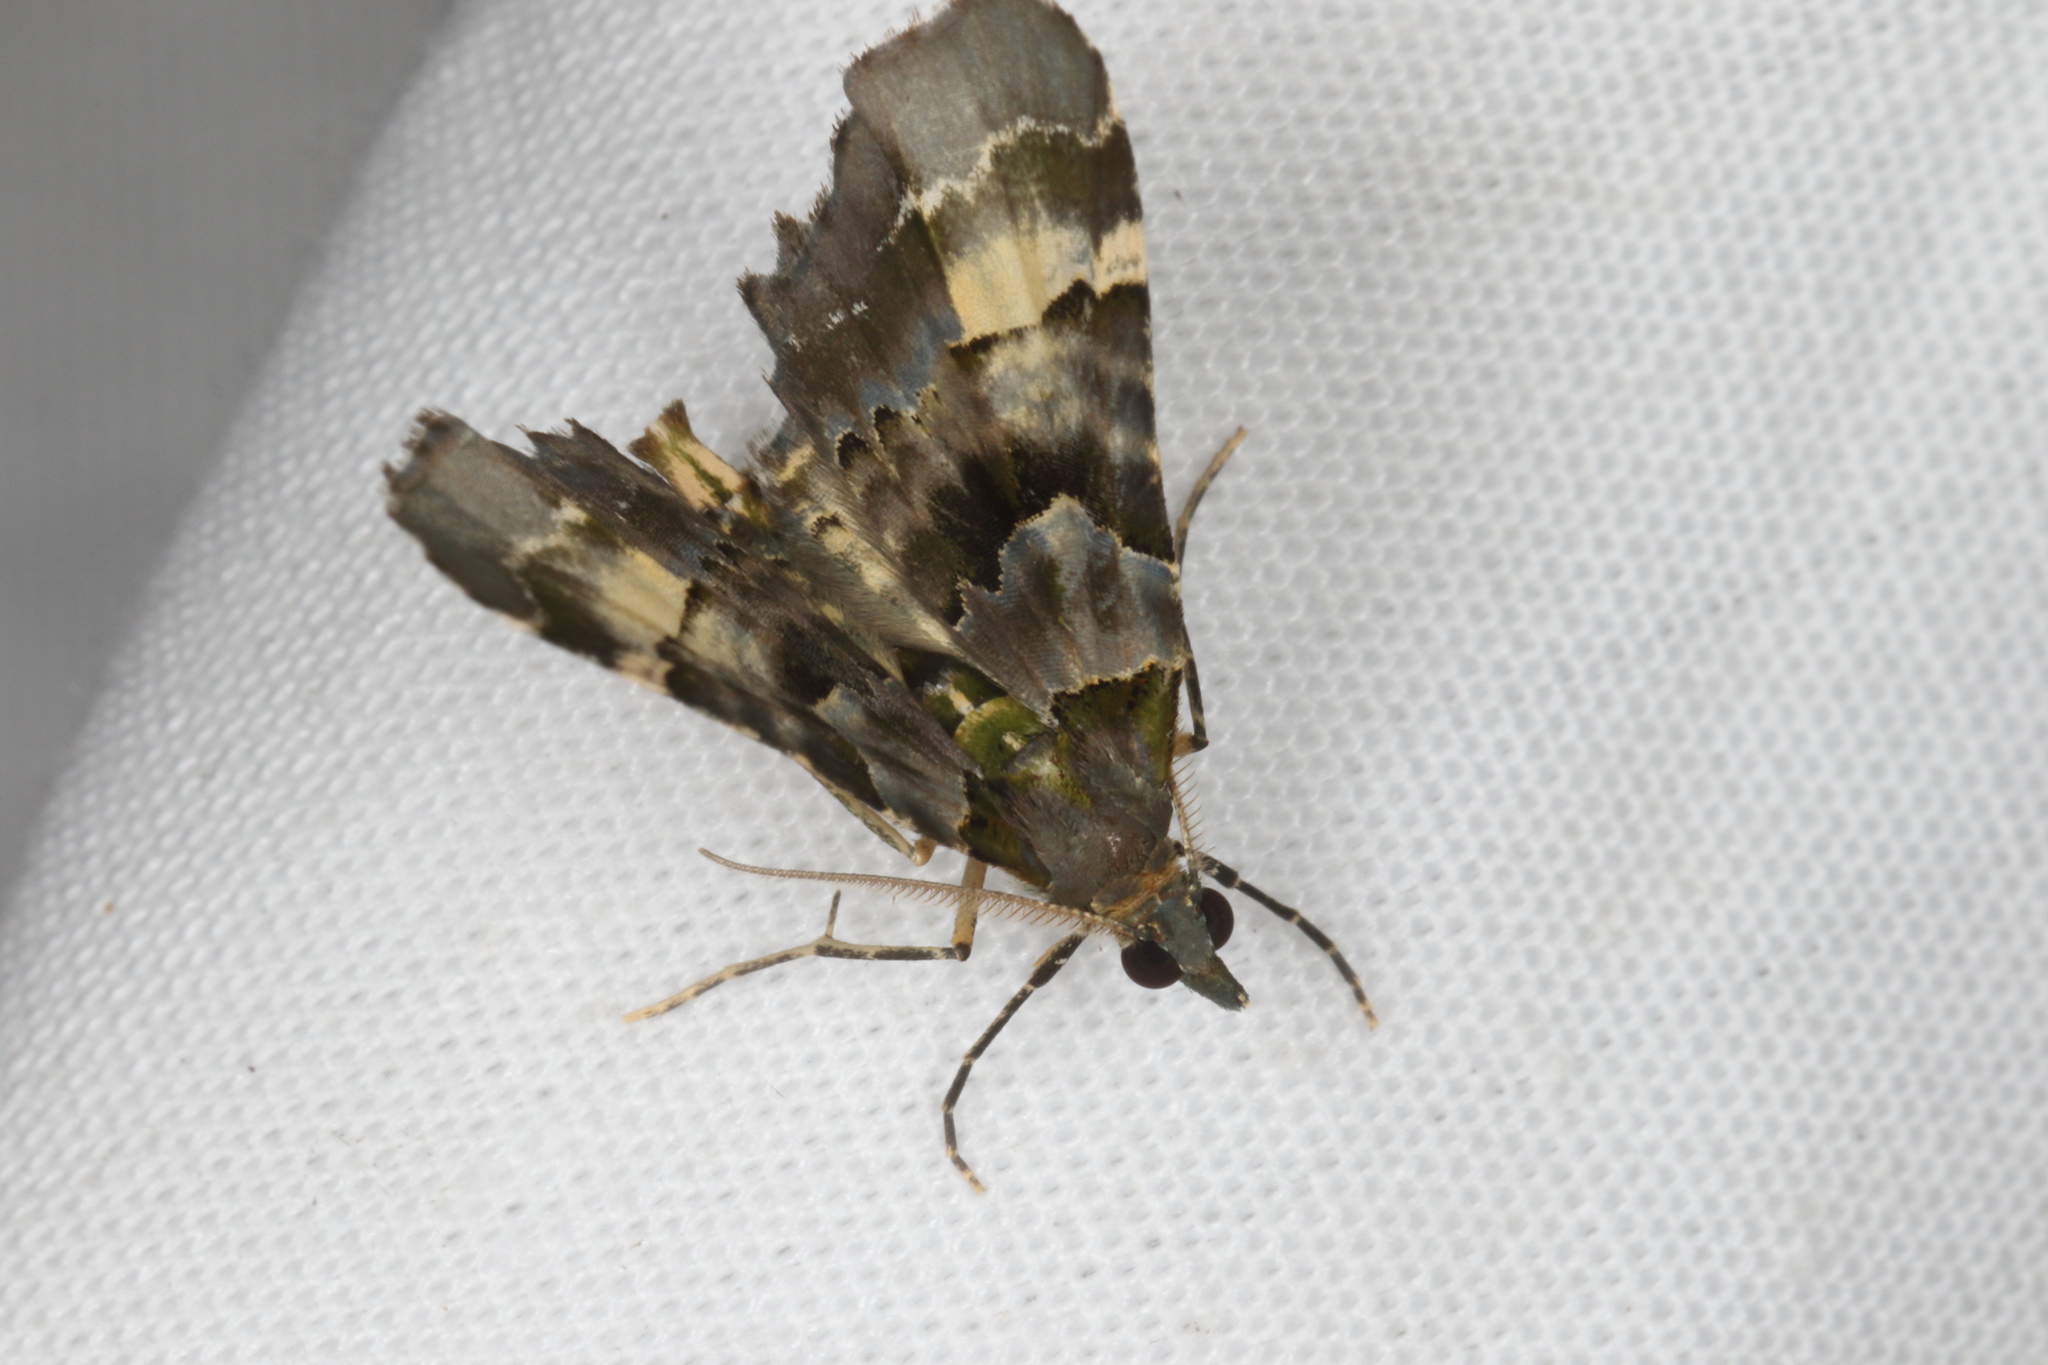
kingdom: Animalia
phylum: Arthropoda
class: Insecta
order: Lepidoptera
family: Geometridae
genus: Elvia
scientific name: Elvia glaucata
